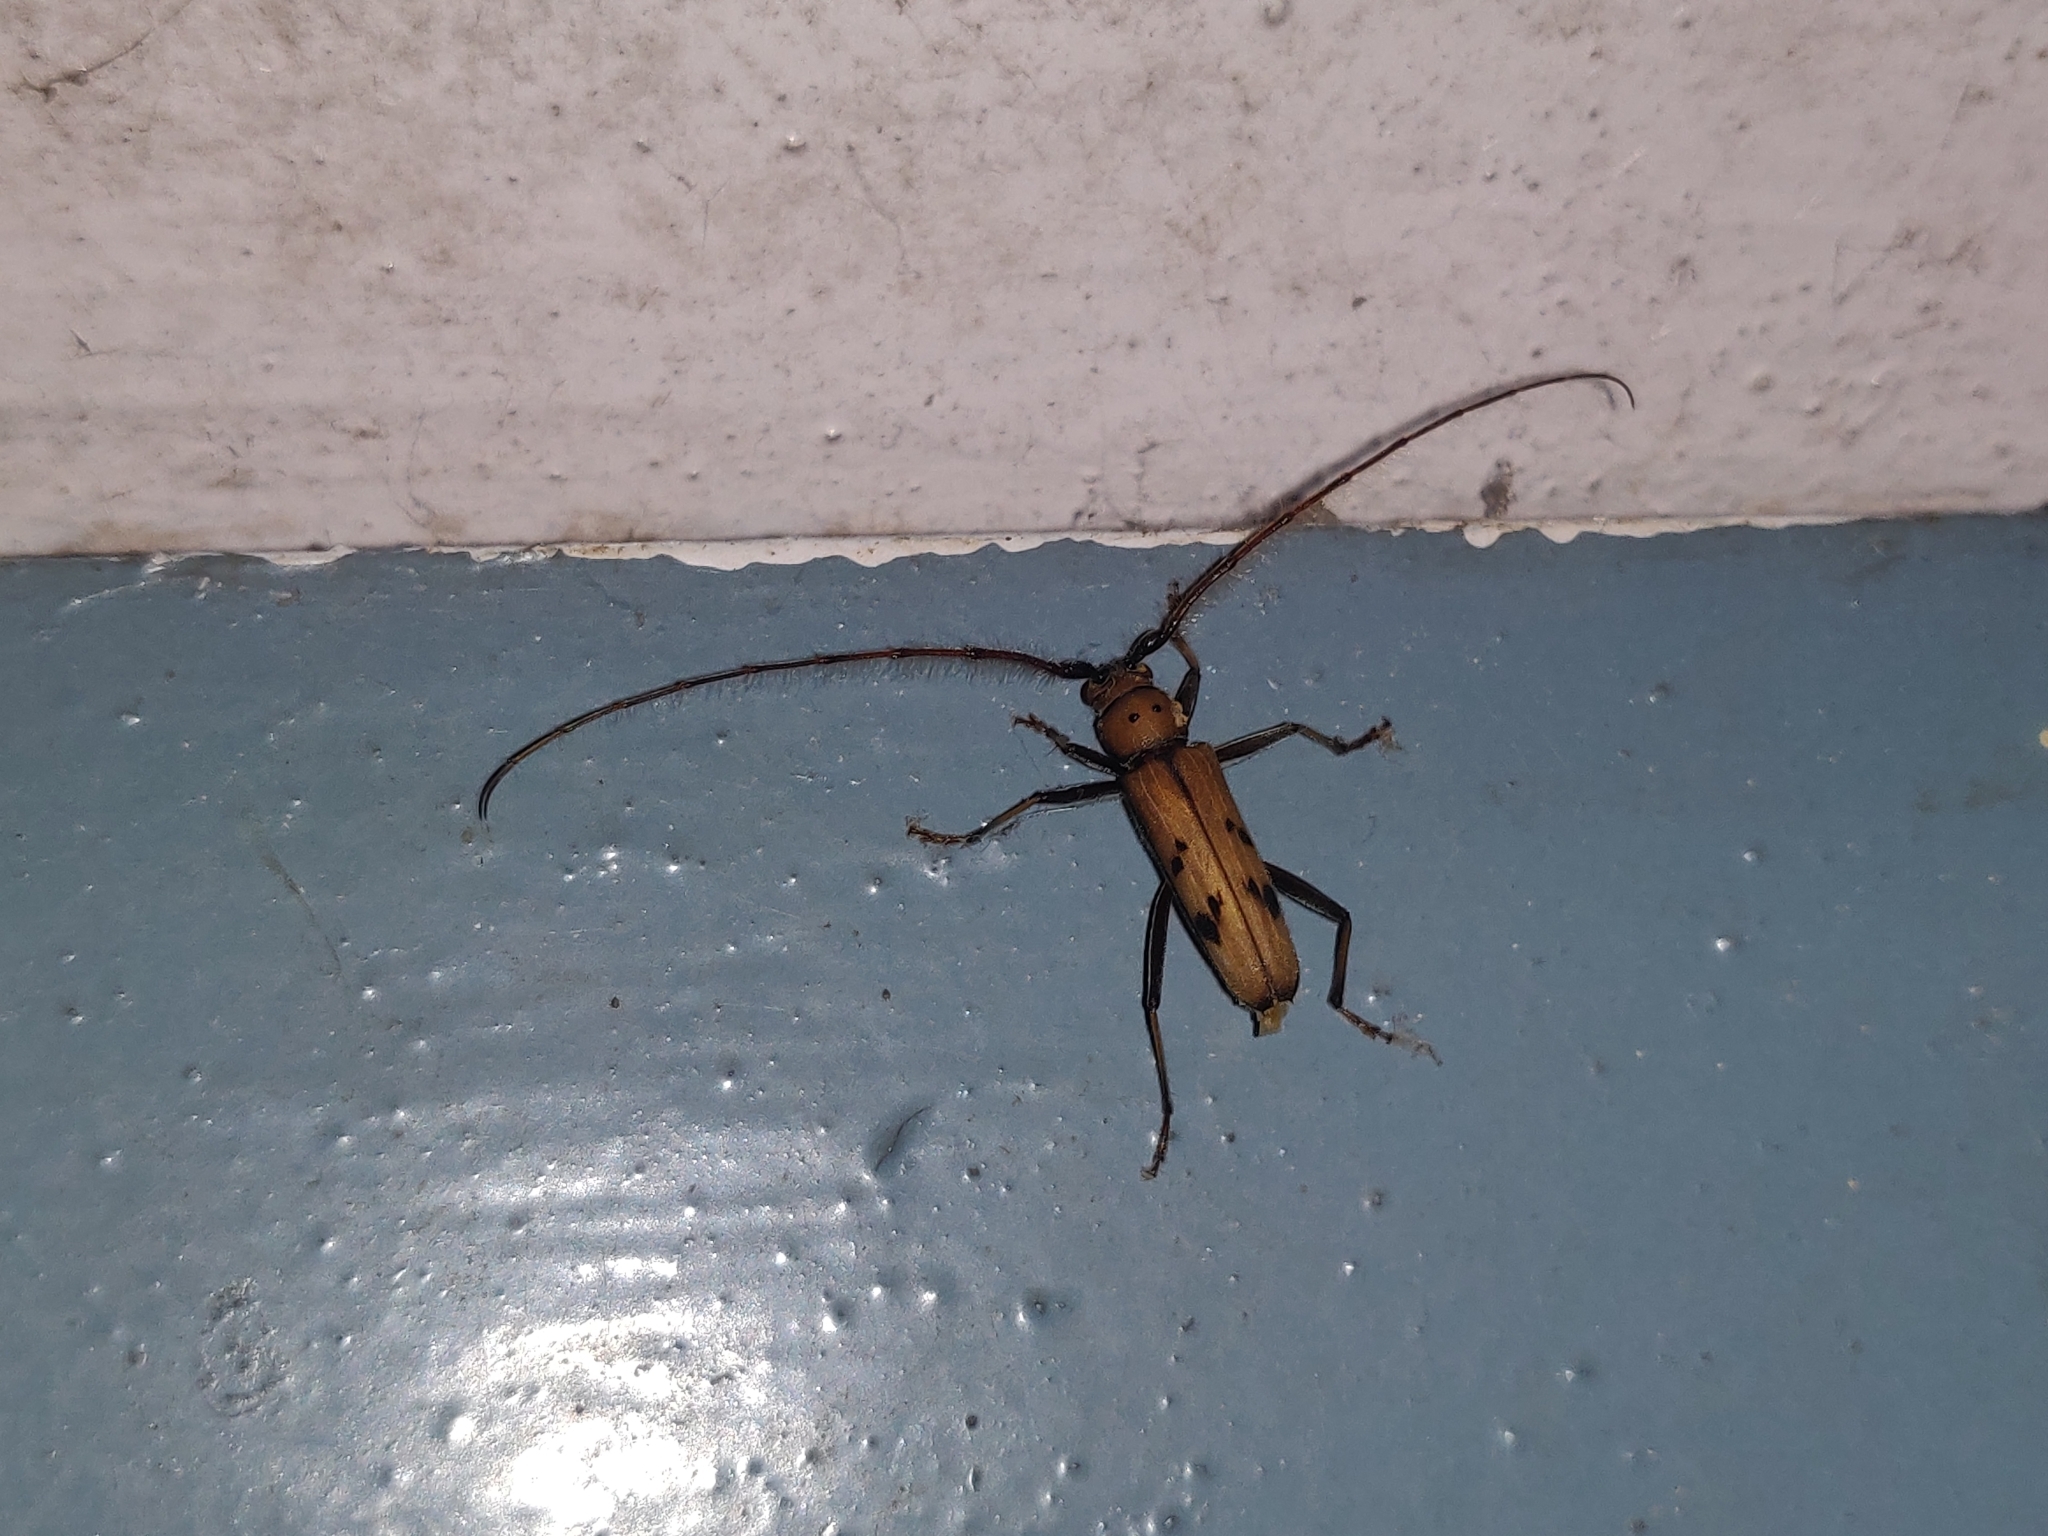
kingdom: Animalia
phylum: Arthropoda
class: Insecta
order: Coleoptera
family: Cerambycidae
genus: Zoodes
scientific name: Zoodes quadridentatus
